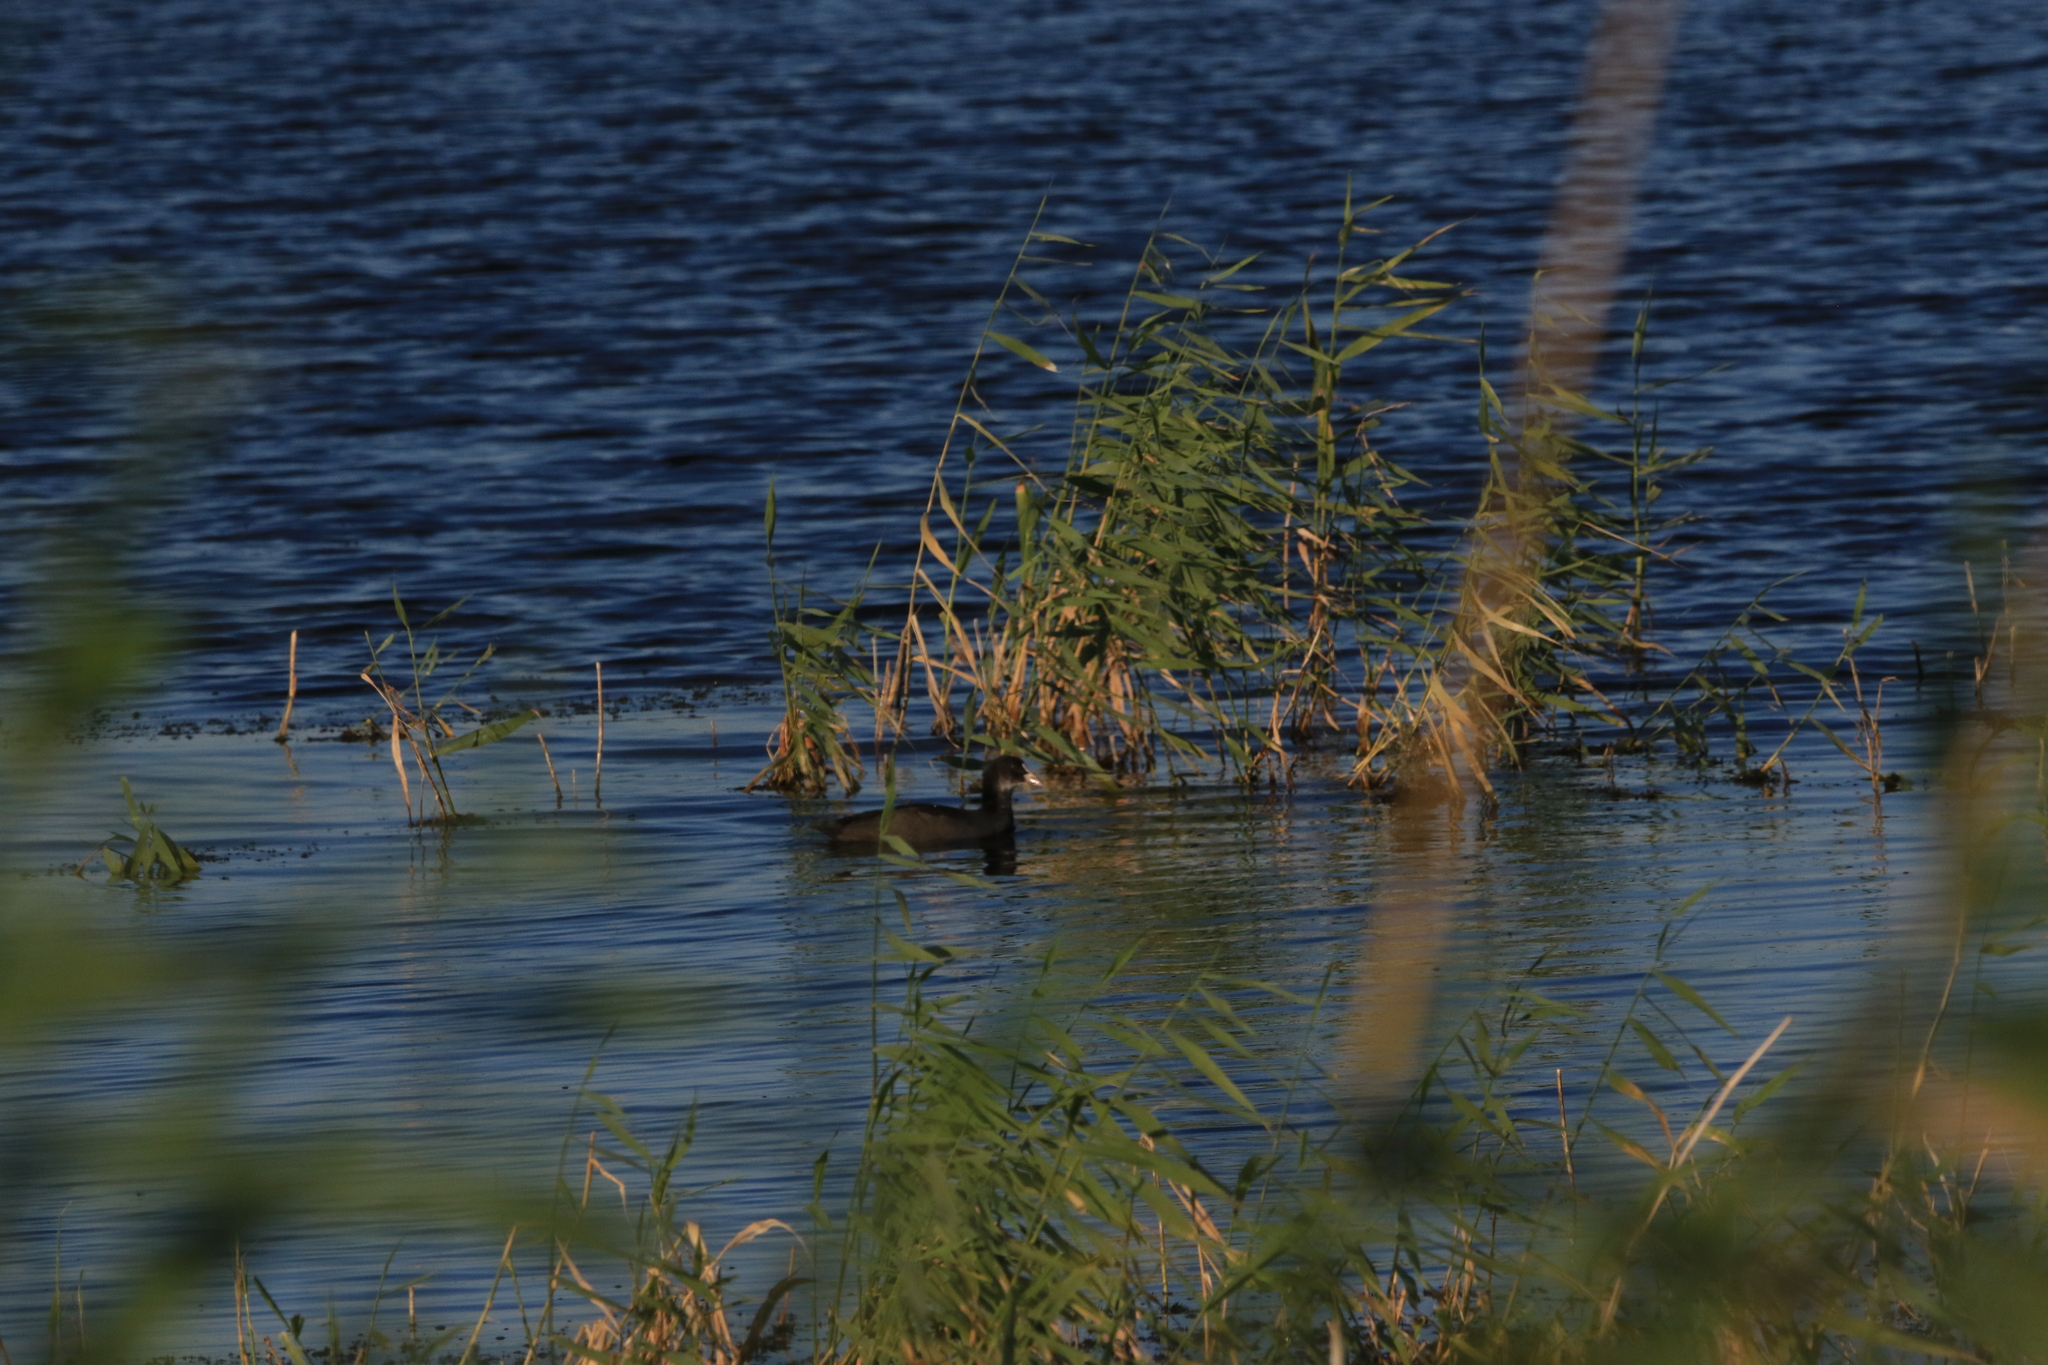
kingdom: Animalia
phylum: Chordata
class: Aves
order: Gruiformes
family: Rallidae
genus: Fulica
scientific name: Fulica atra
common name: Eurasian coot
